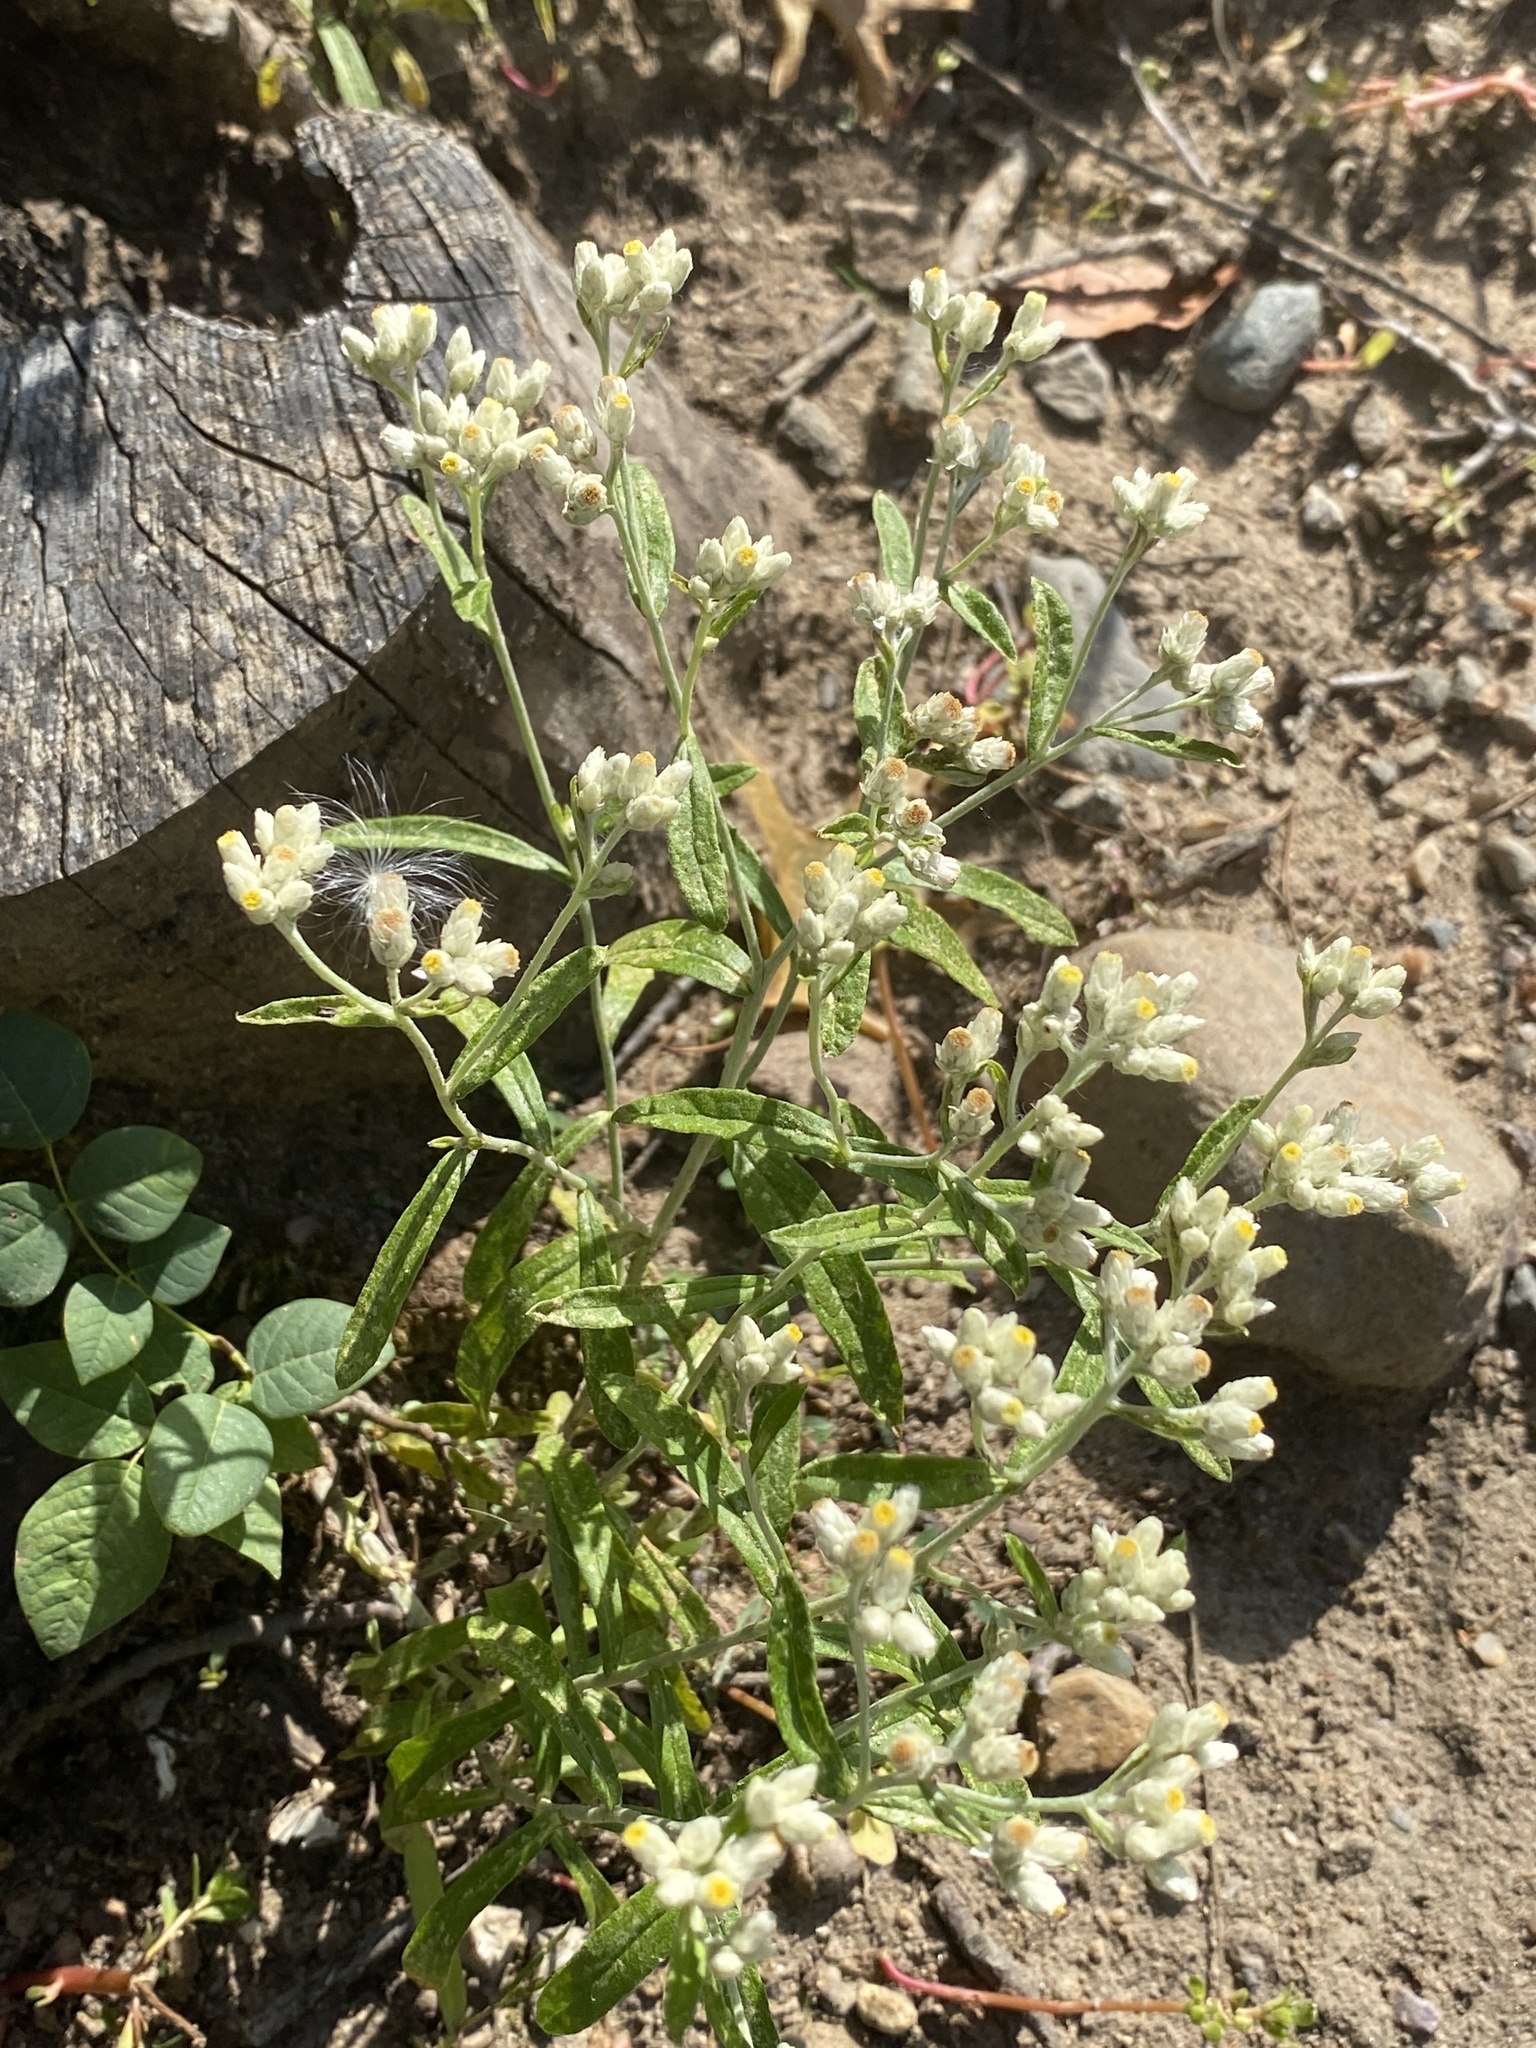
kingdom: Plantae
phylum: Tracheophyta
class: Magnoliopsida
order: Asterales
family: Asteraceae
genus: Pseudognaphalium
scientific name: Pseudognaphalium obtusifolium
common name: Eastern rabbit-tobacco
